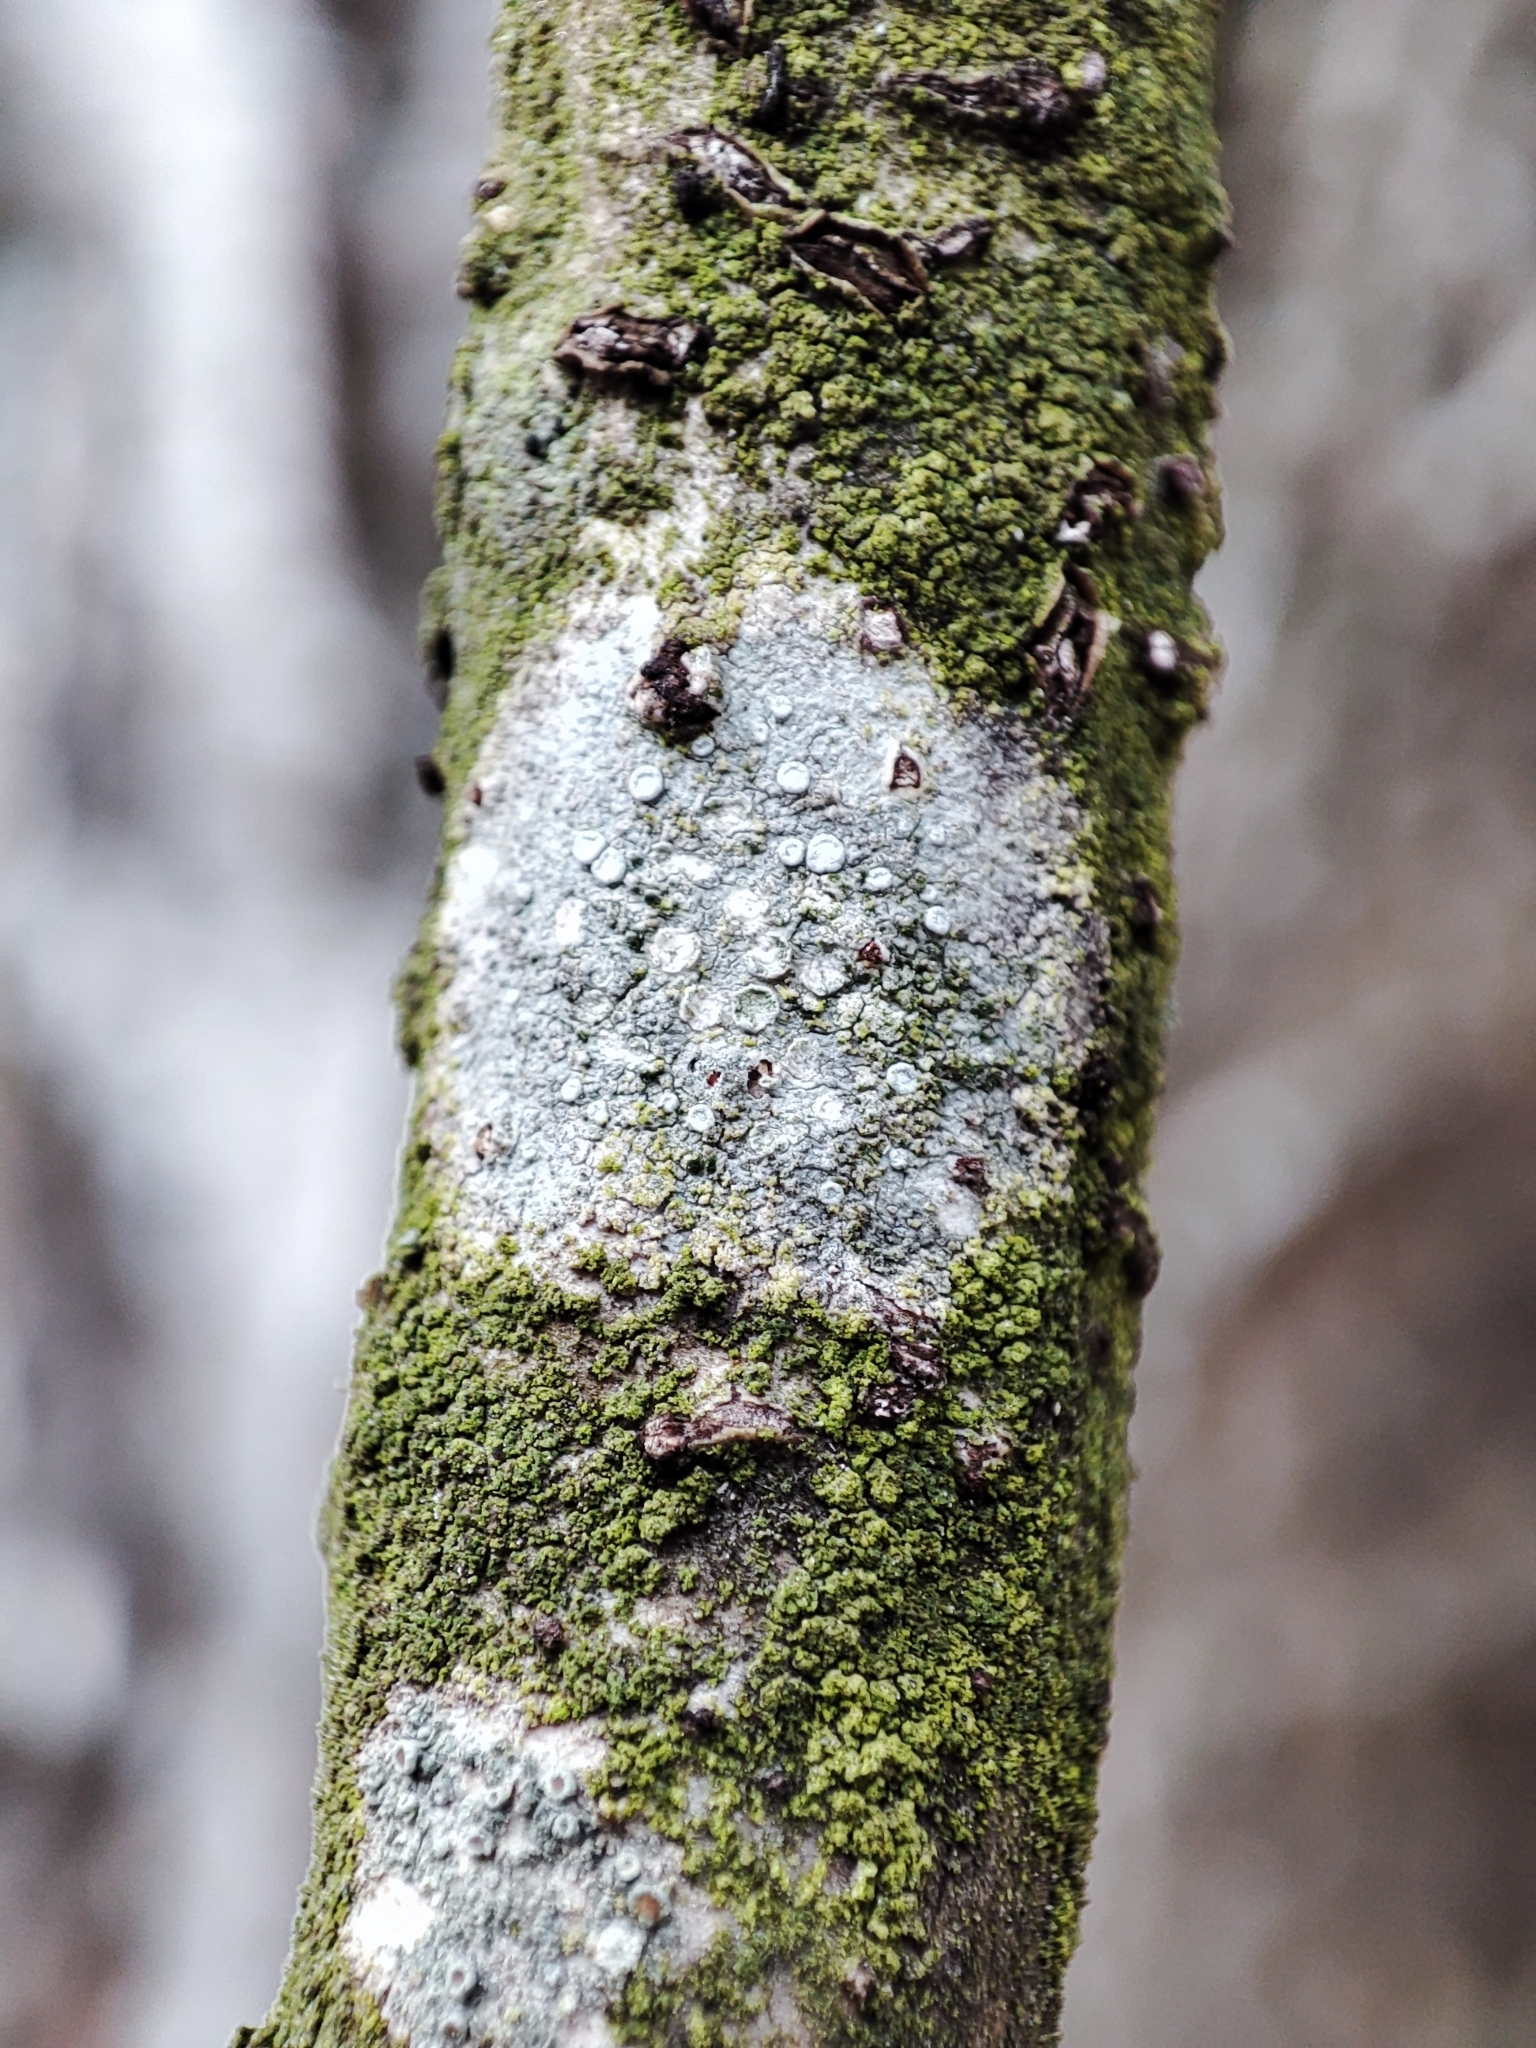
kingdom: Fungi
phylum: Ascomycota
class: Lecanoromycetes
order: Lecanorales
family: Lecanoraceae
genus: Glaucomaria
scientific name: Glaucomaria carpinea
